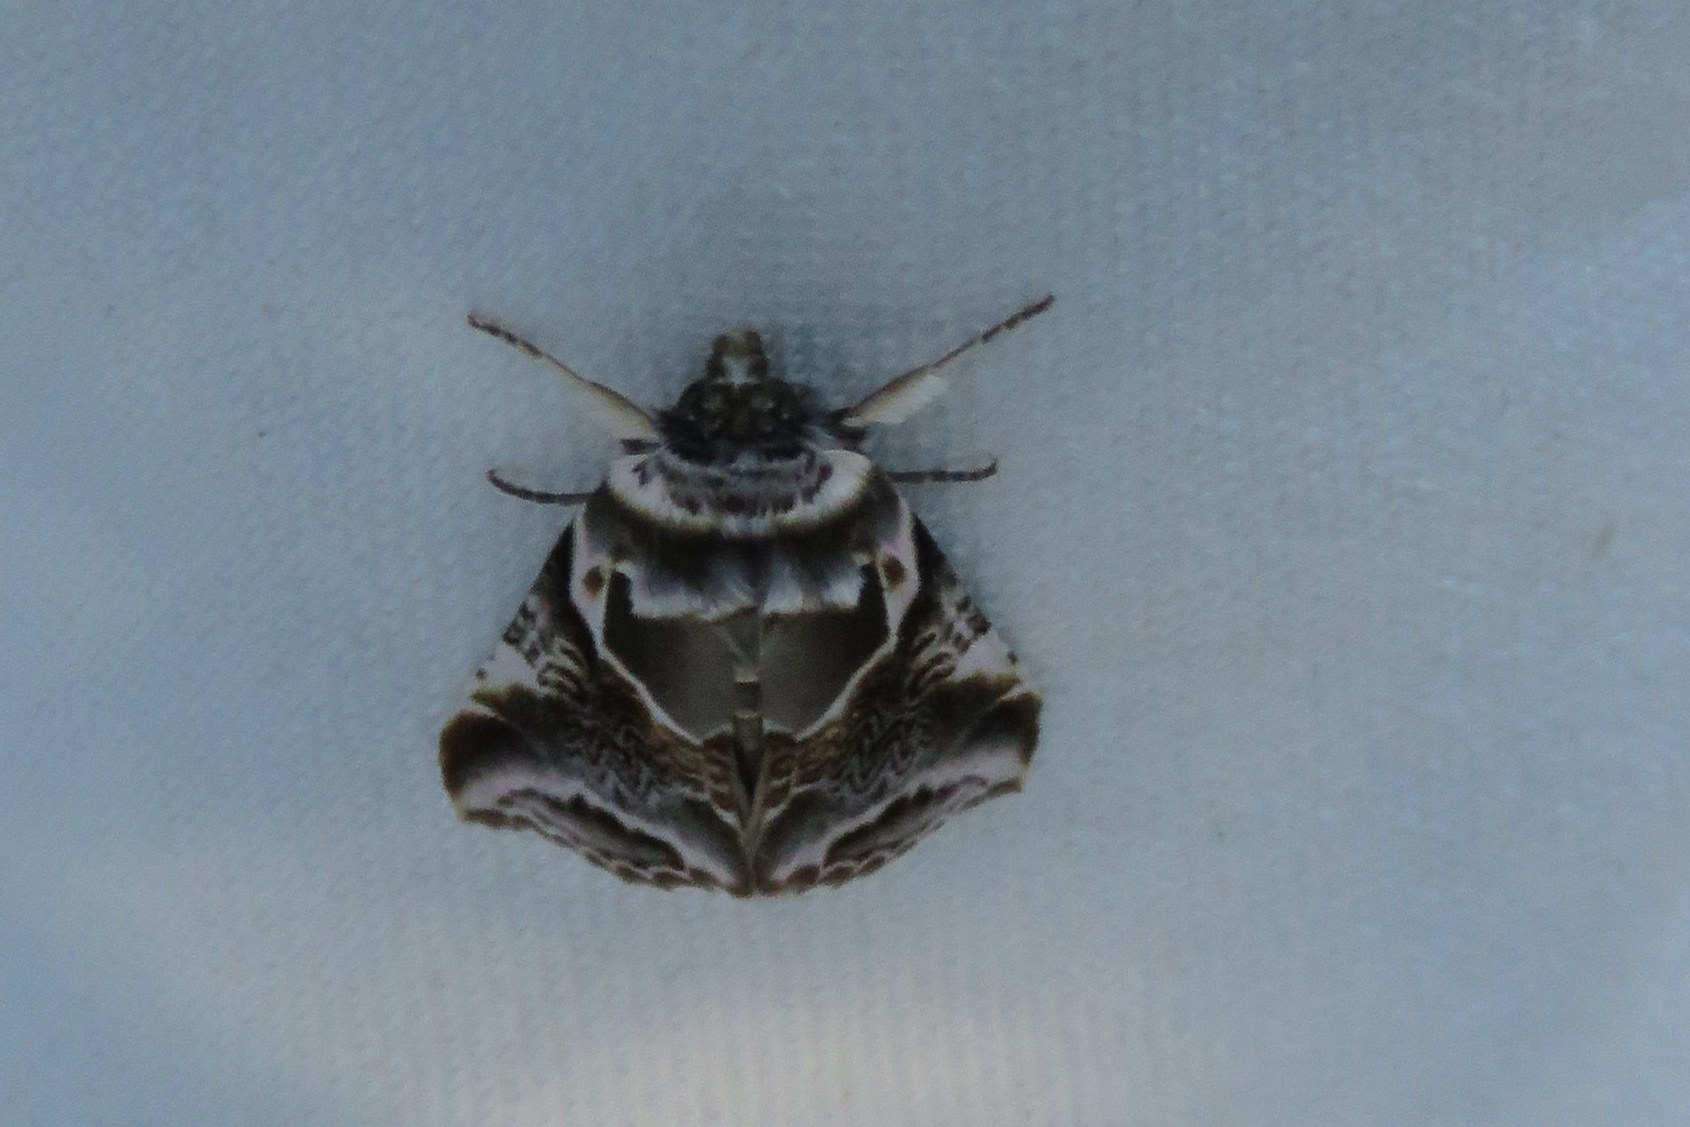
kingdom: Animalia
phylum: Arthropoda
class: Insecta
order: Lepidoptera
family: Drepanidae
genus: Habrosyne
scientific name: Habrosyne scripta
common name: Lettered habrosyne moth
